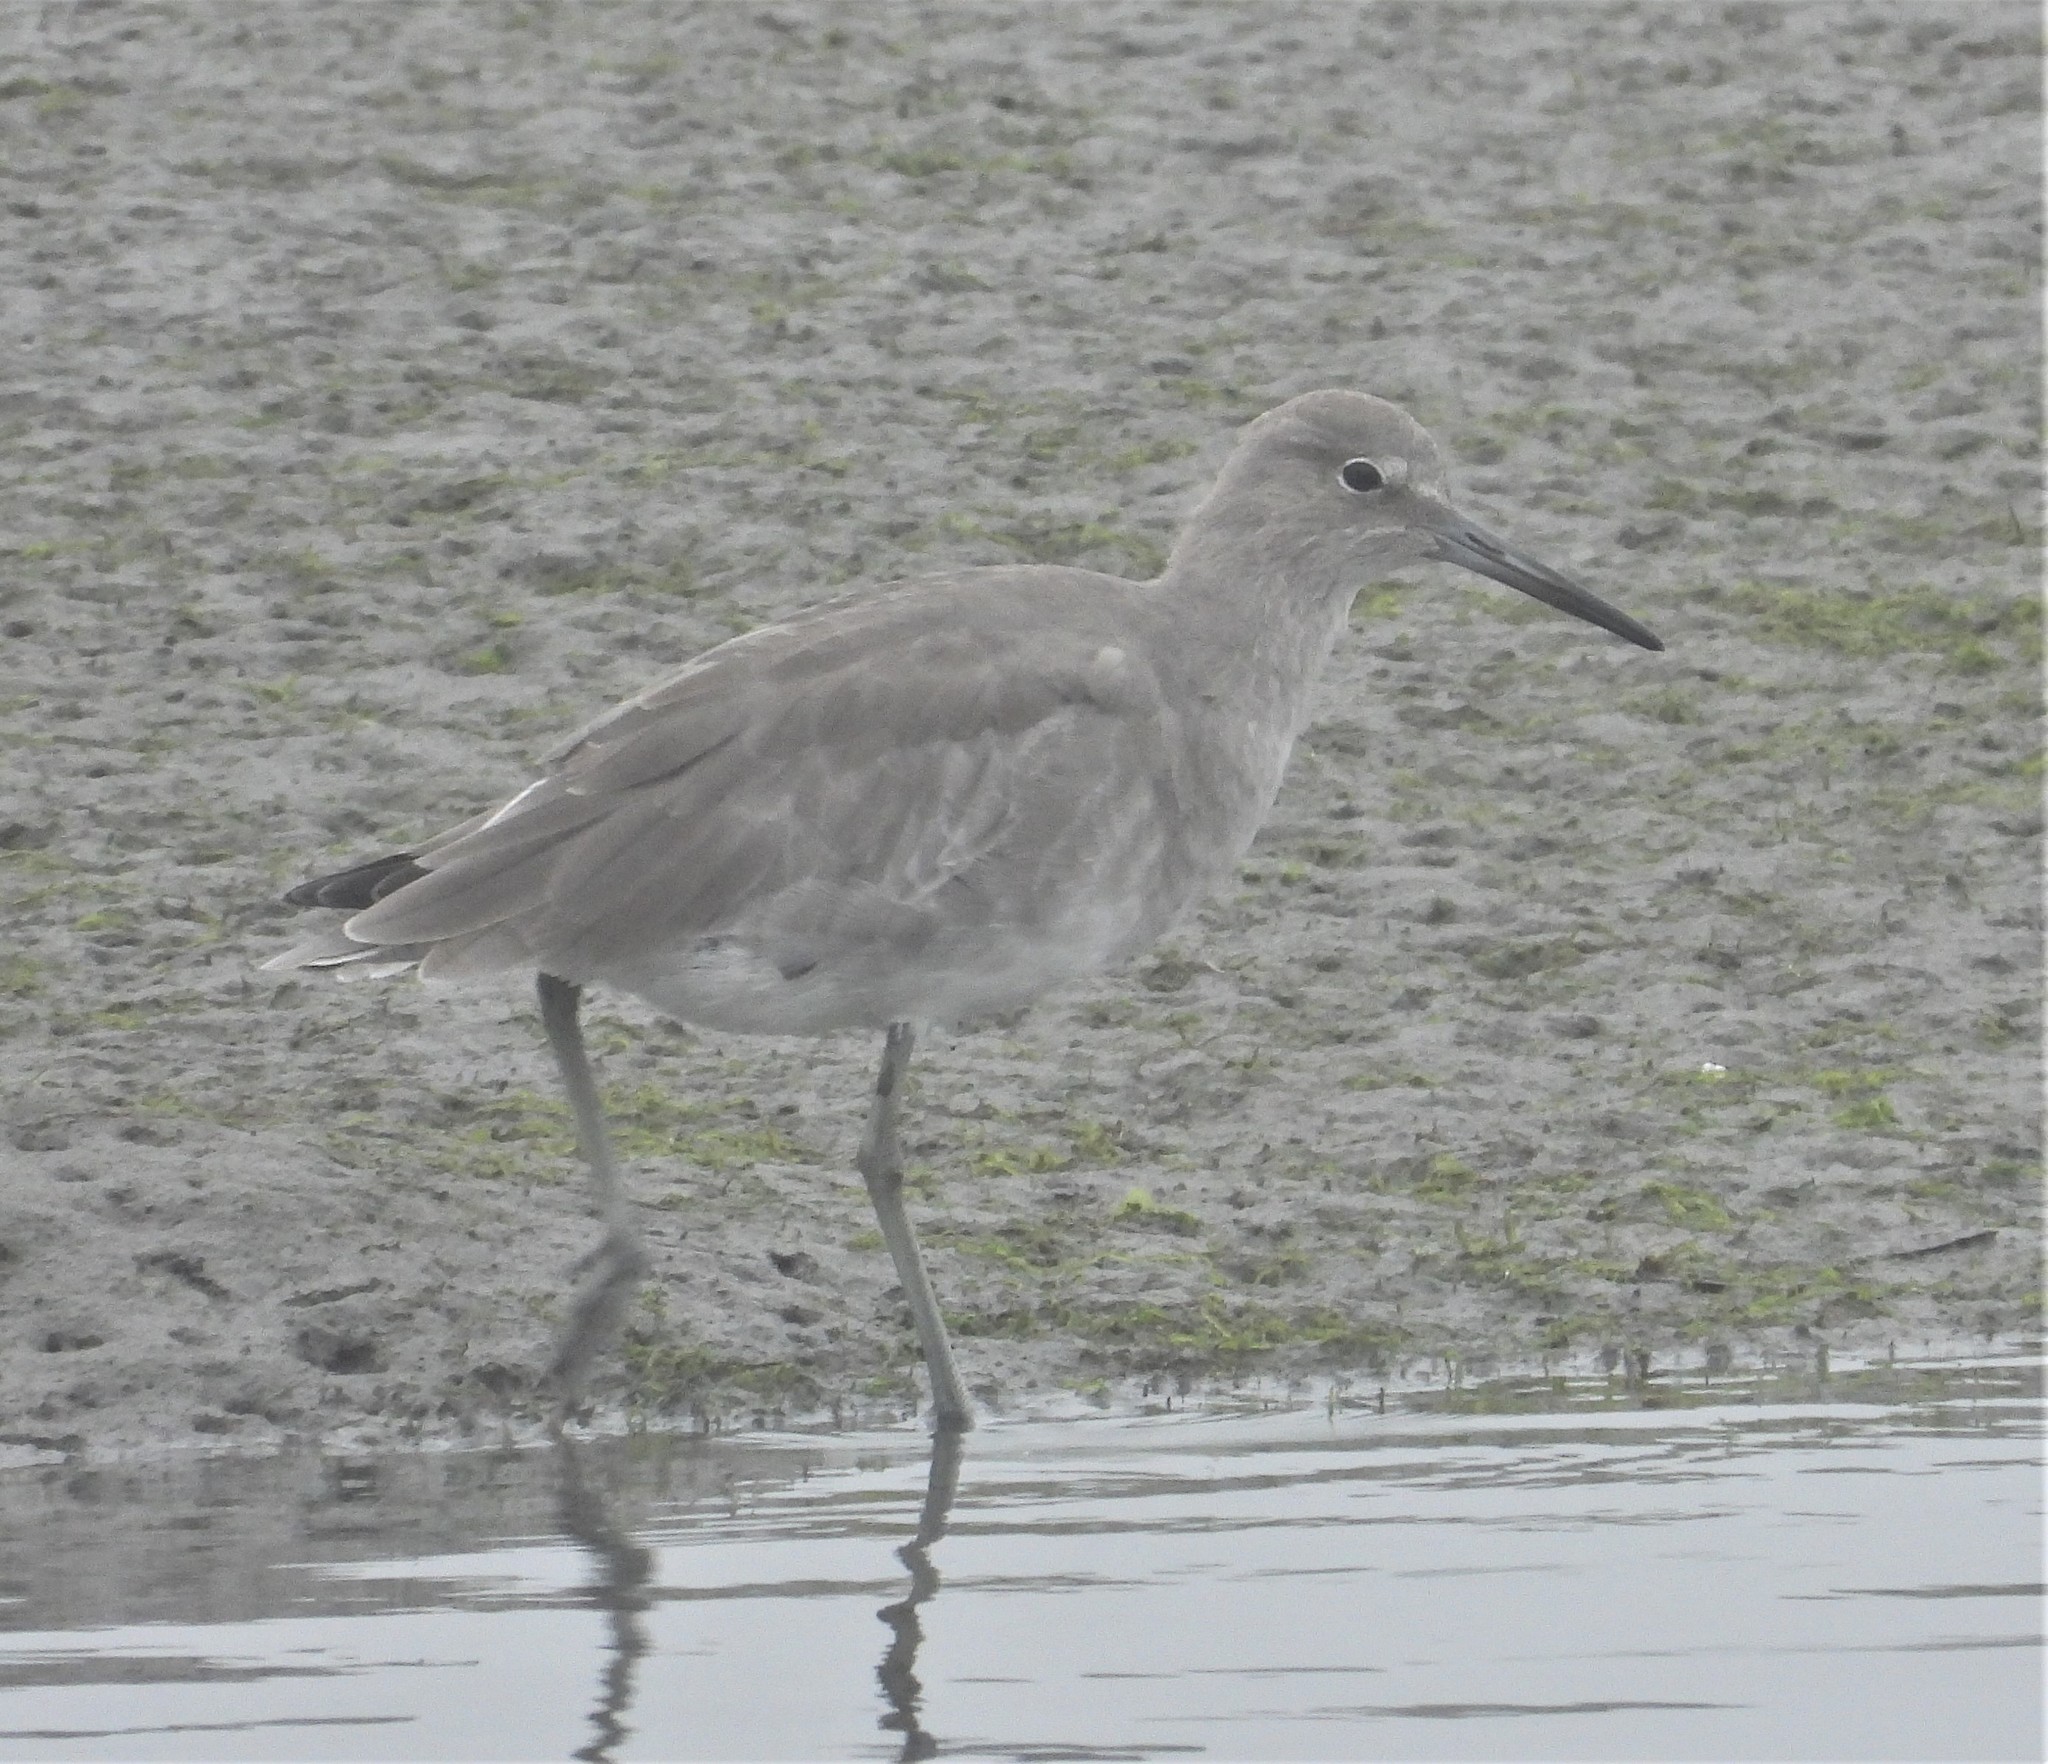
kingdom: Animalia
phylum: Chordata
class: Aves
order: Charadriiformes
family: Scolopacidae
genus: Tringa
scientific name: Tringa semipalmata
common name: Willet
